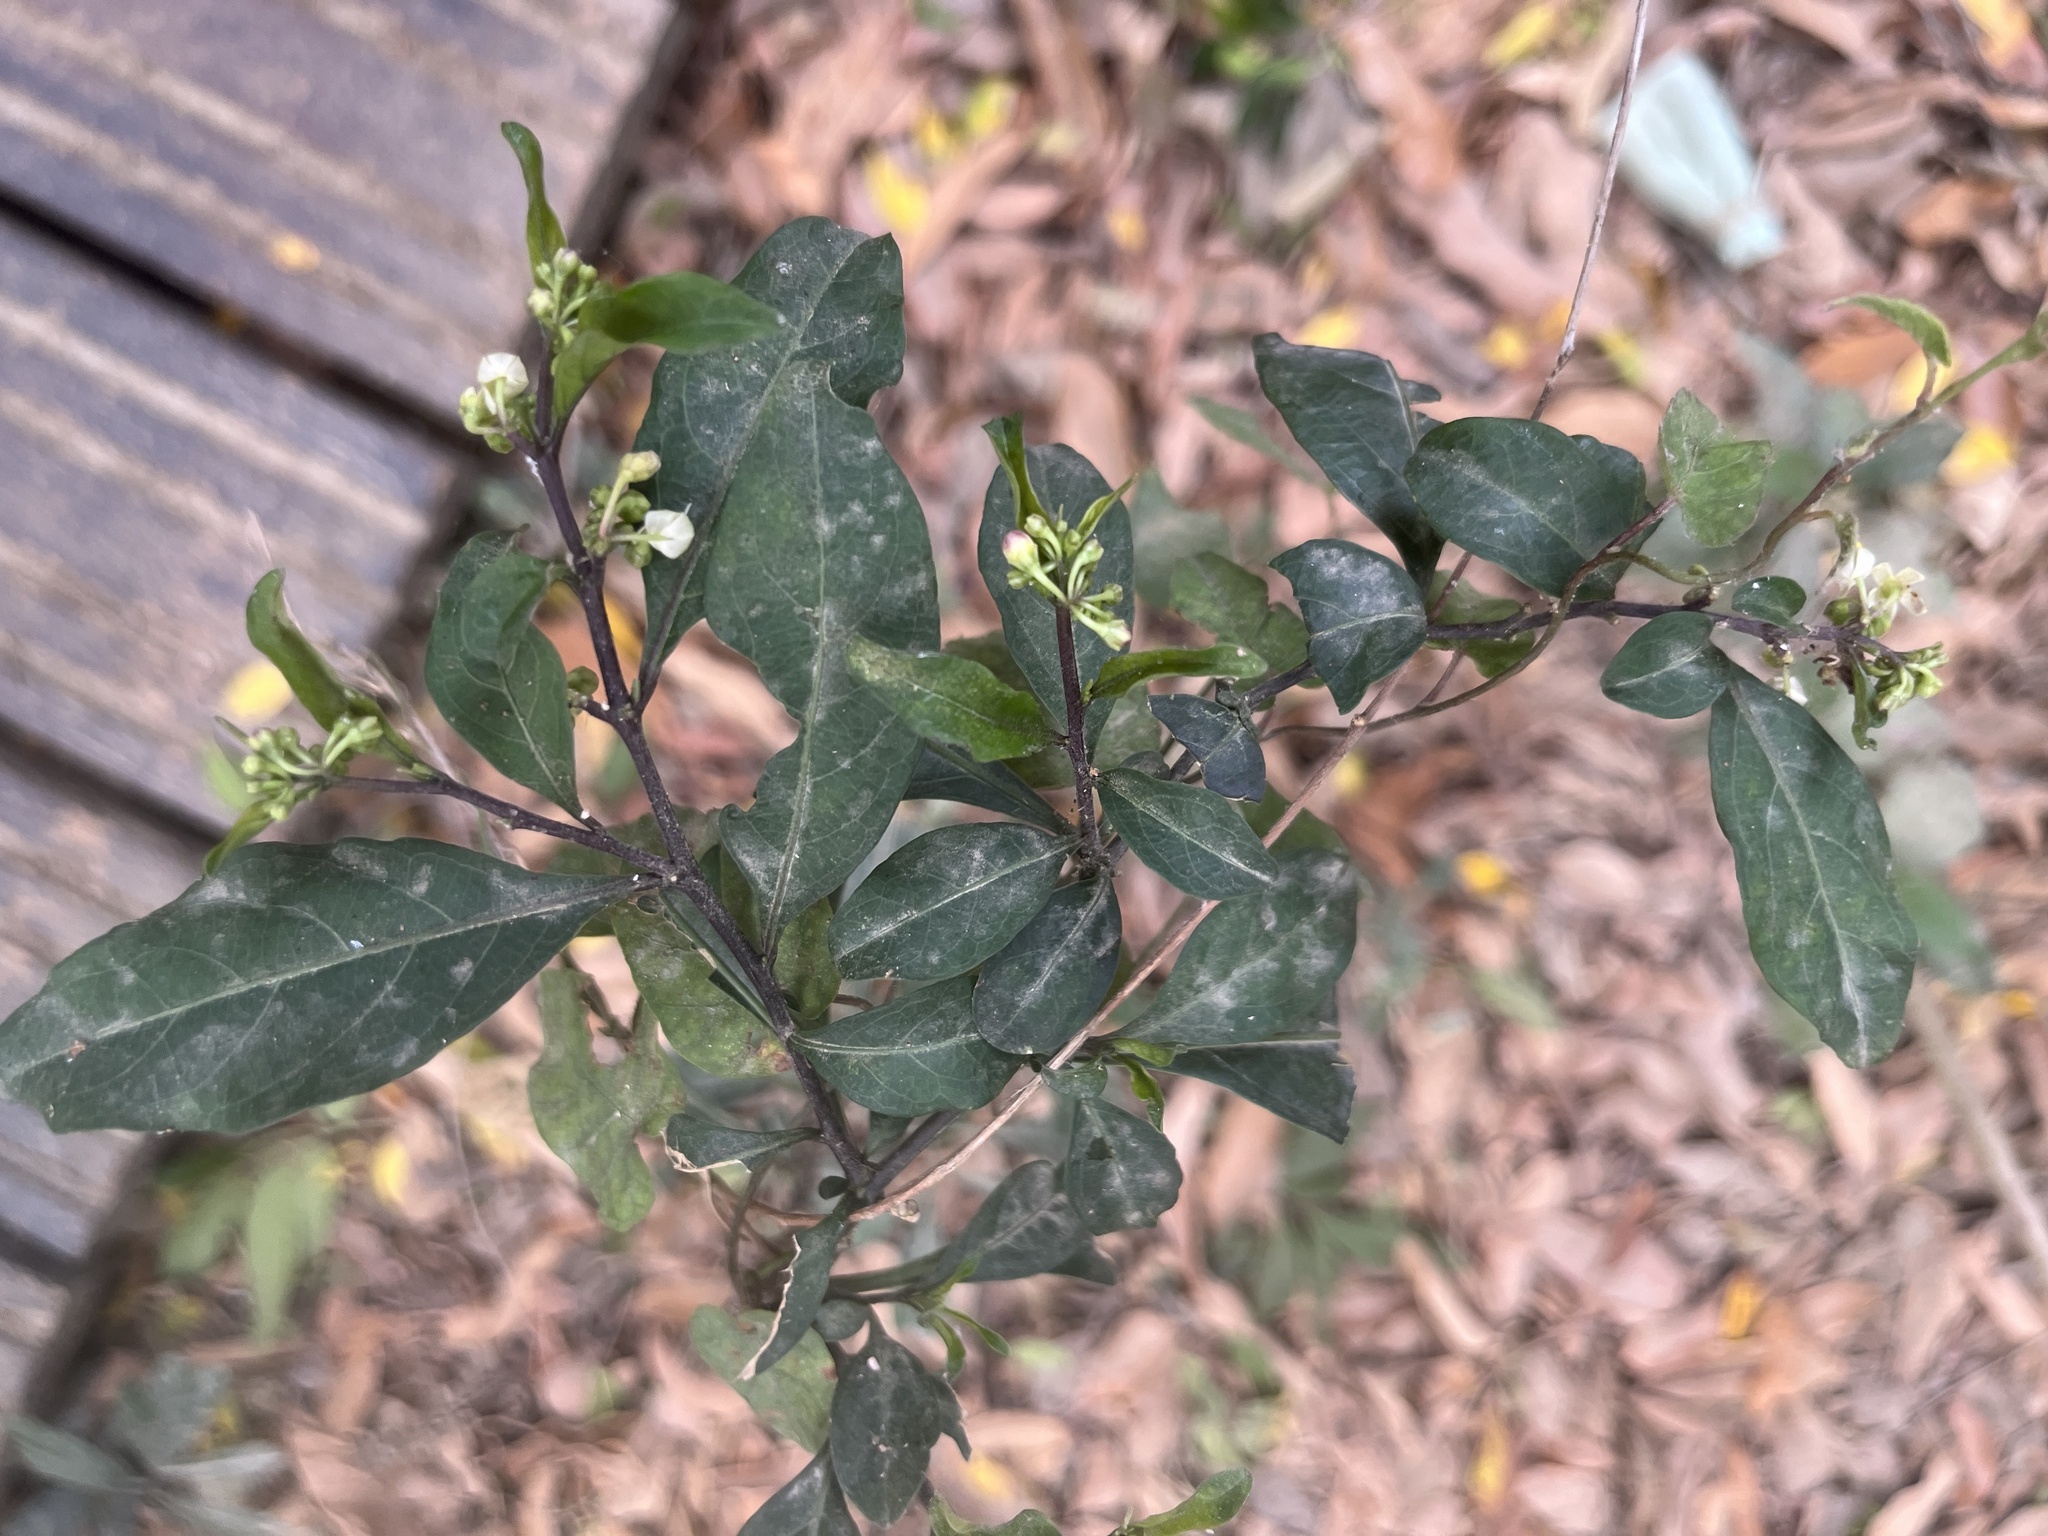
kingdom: Plantae
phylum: Tracheophyta
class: Magnoliopsida
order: Solanales
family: Solanaceae
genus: Solanum
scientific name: Solanum diphyllum
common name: Twoleaf nightshade
